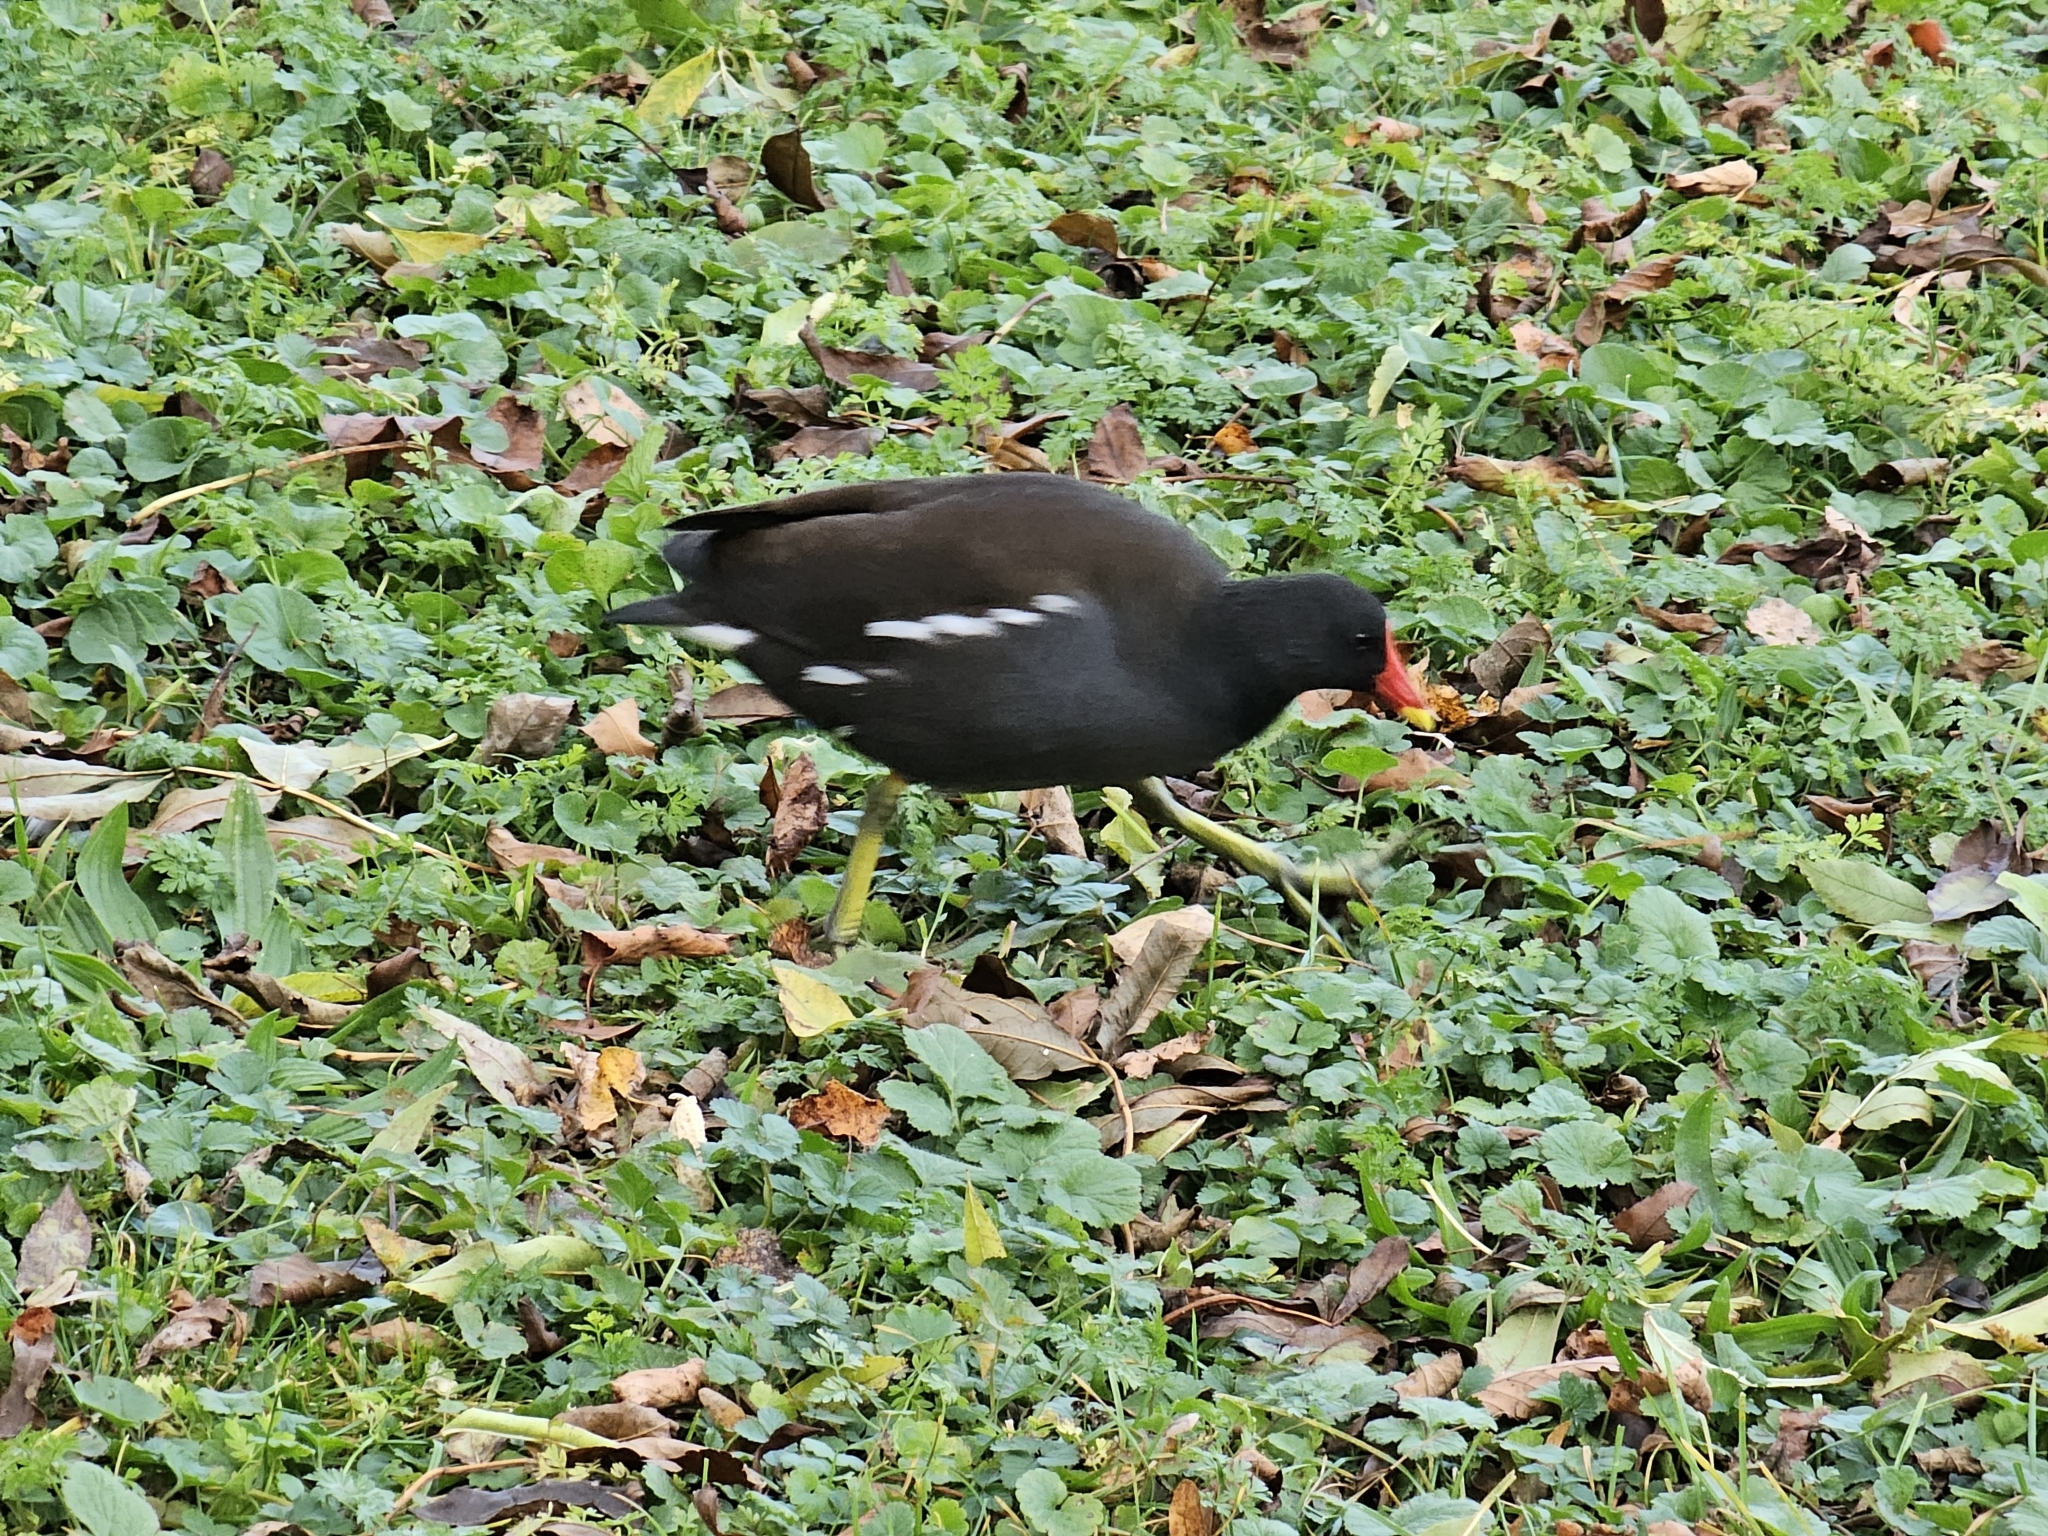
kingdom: Animalia
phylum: Chordata
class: Aves
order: Gruiformes
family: Rallidae
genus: Gallinula
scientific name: Gallinula chloropus
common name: Common moorhen
